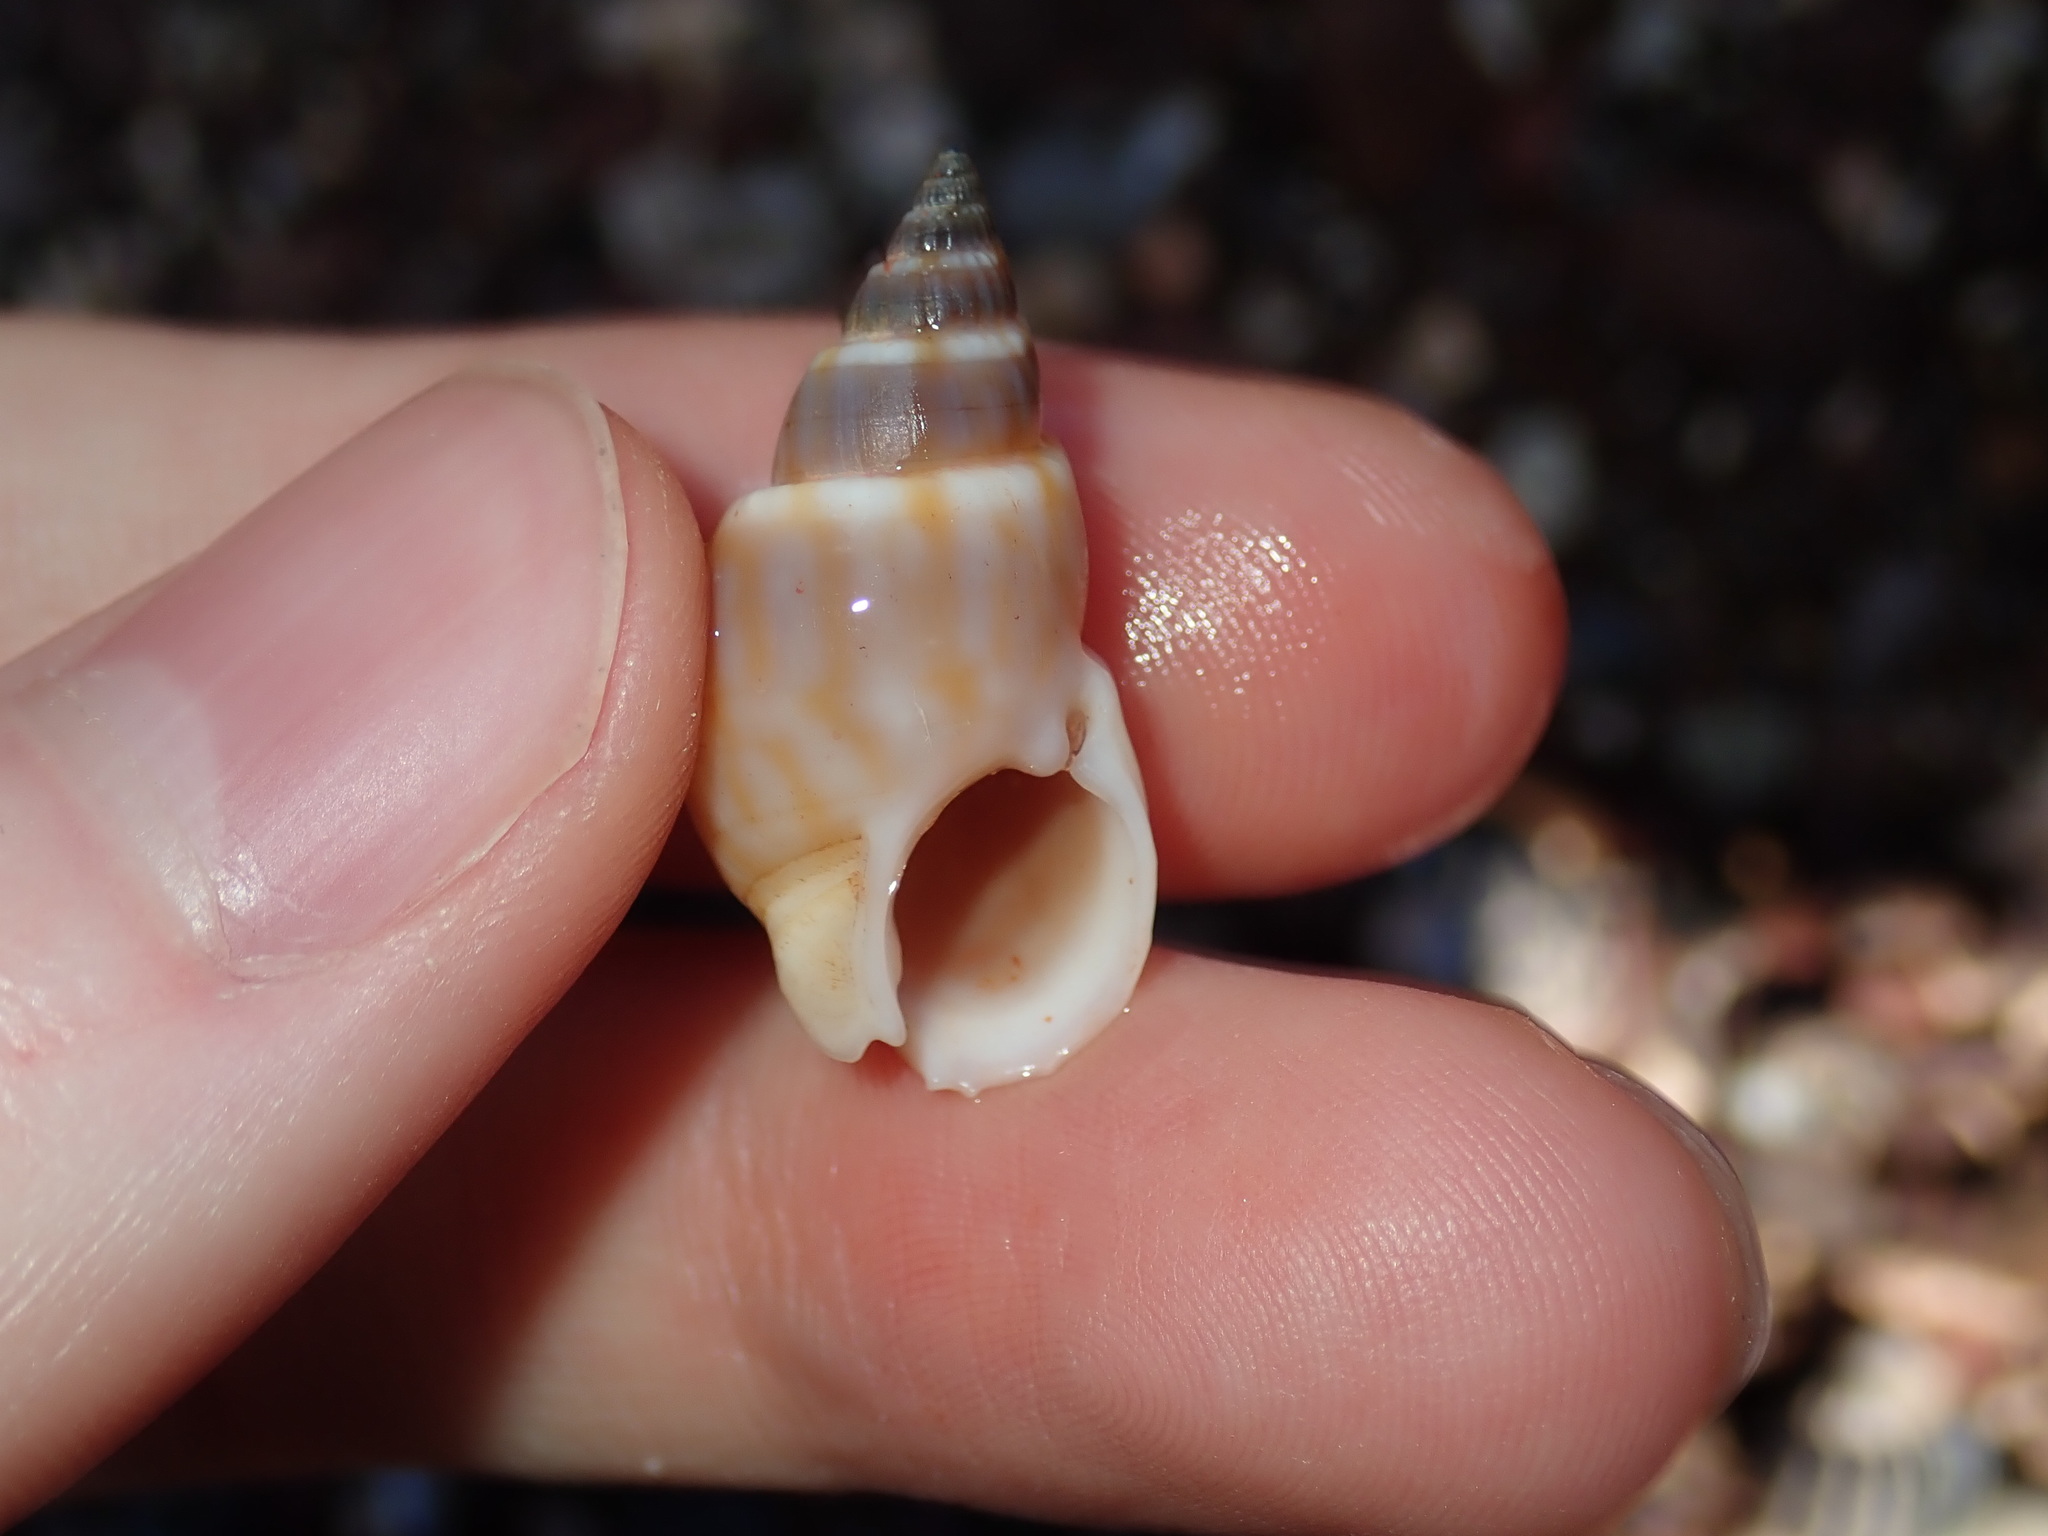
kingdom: Animalia
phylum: Mollusca
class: Gastropoda
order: Neogastropoda
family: Nassariidae
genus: Nassarius
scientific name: Nassarius particeps
